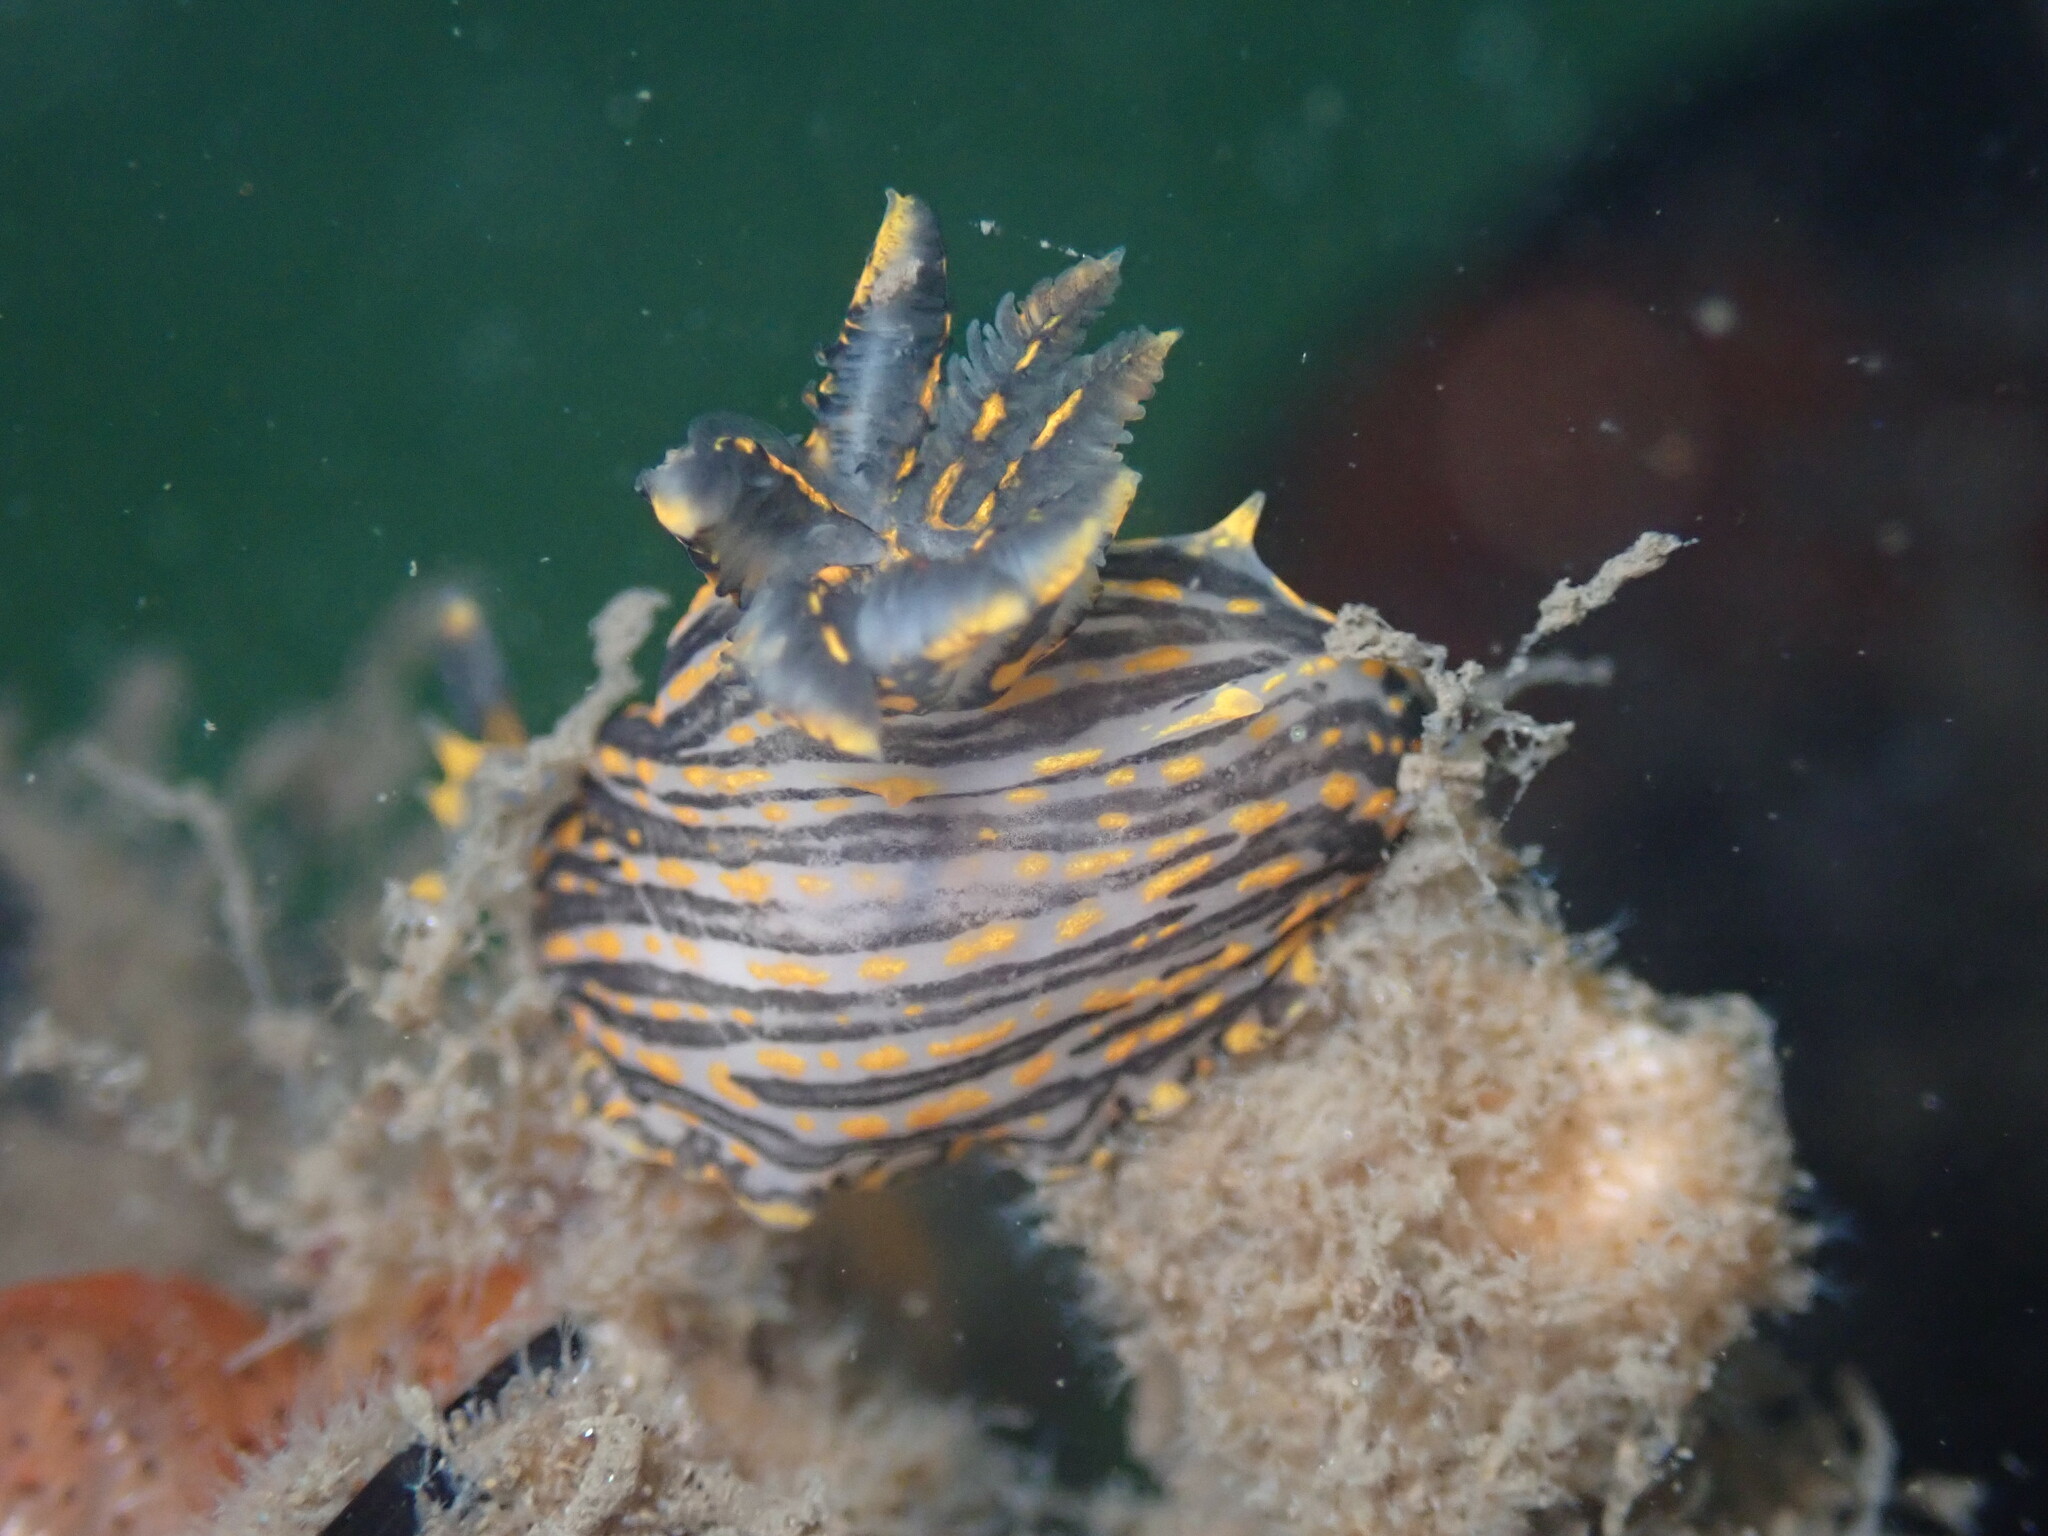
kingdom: Animalia
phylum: Mollusca
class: Gastropoda
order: Nudibranchia
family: Polyceridae
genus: Polycera
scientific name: Polycera atra
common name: Orange-spike polycera
